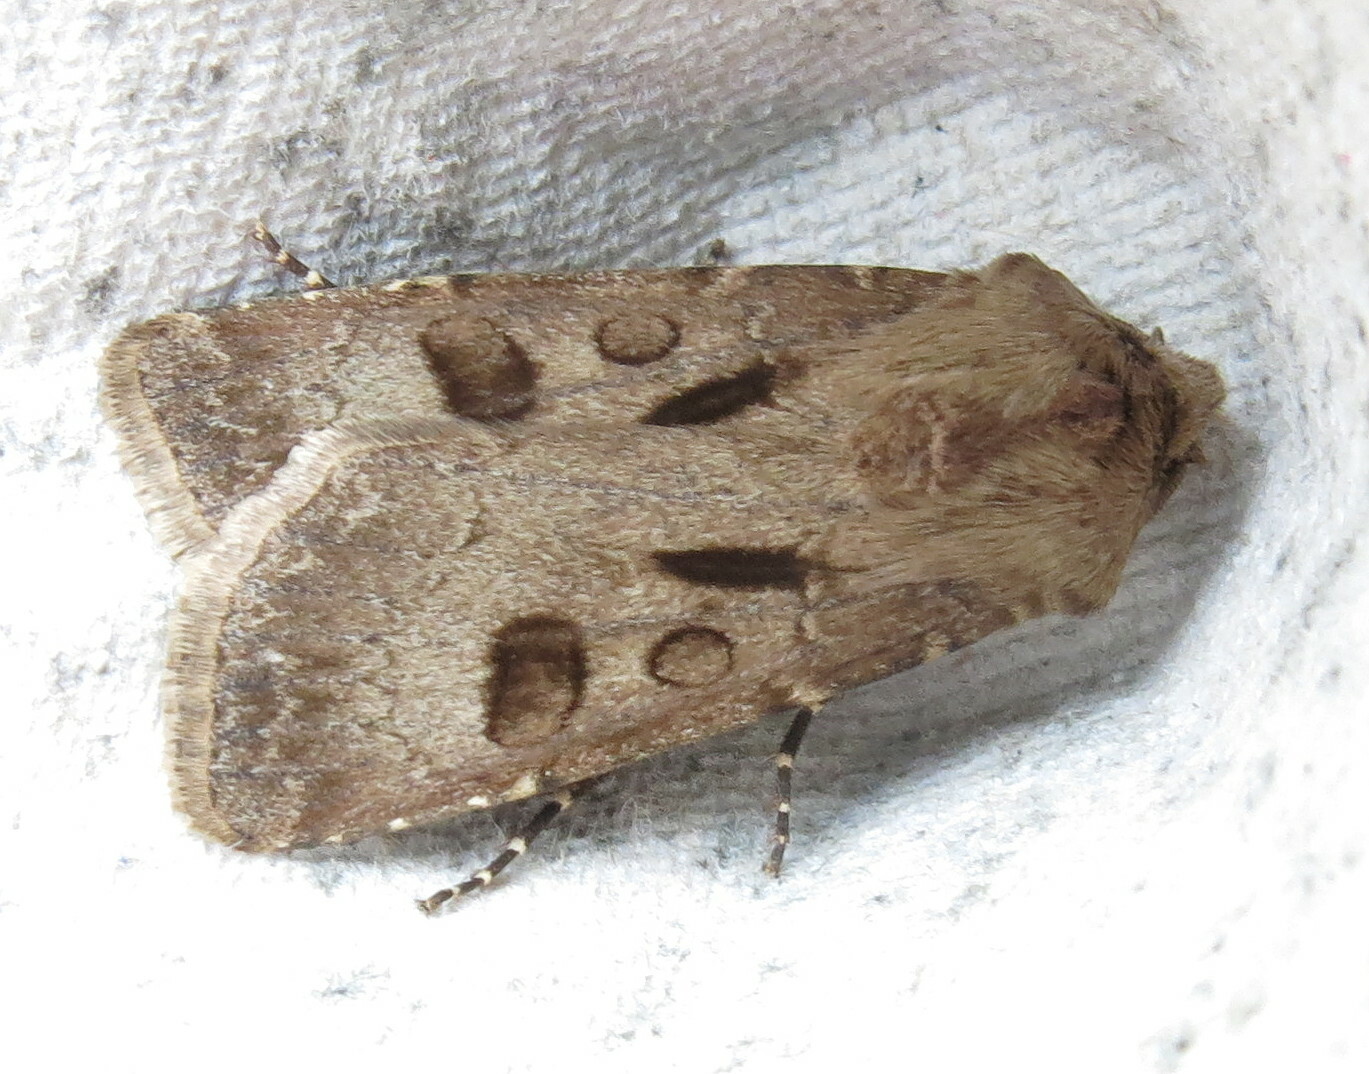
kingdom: Animalia
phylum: Arthropoda
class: Insecta
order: Lepidoptera
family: Noctuidae
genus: Agrotis
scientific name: Agrotis exclamationis
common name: Heart and dart
